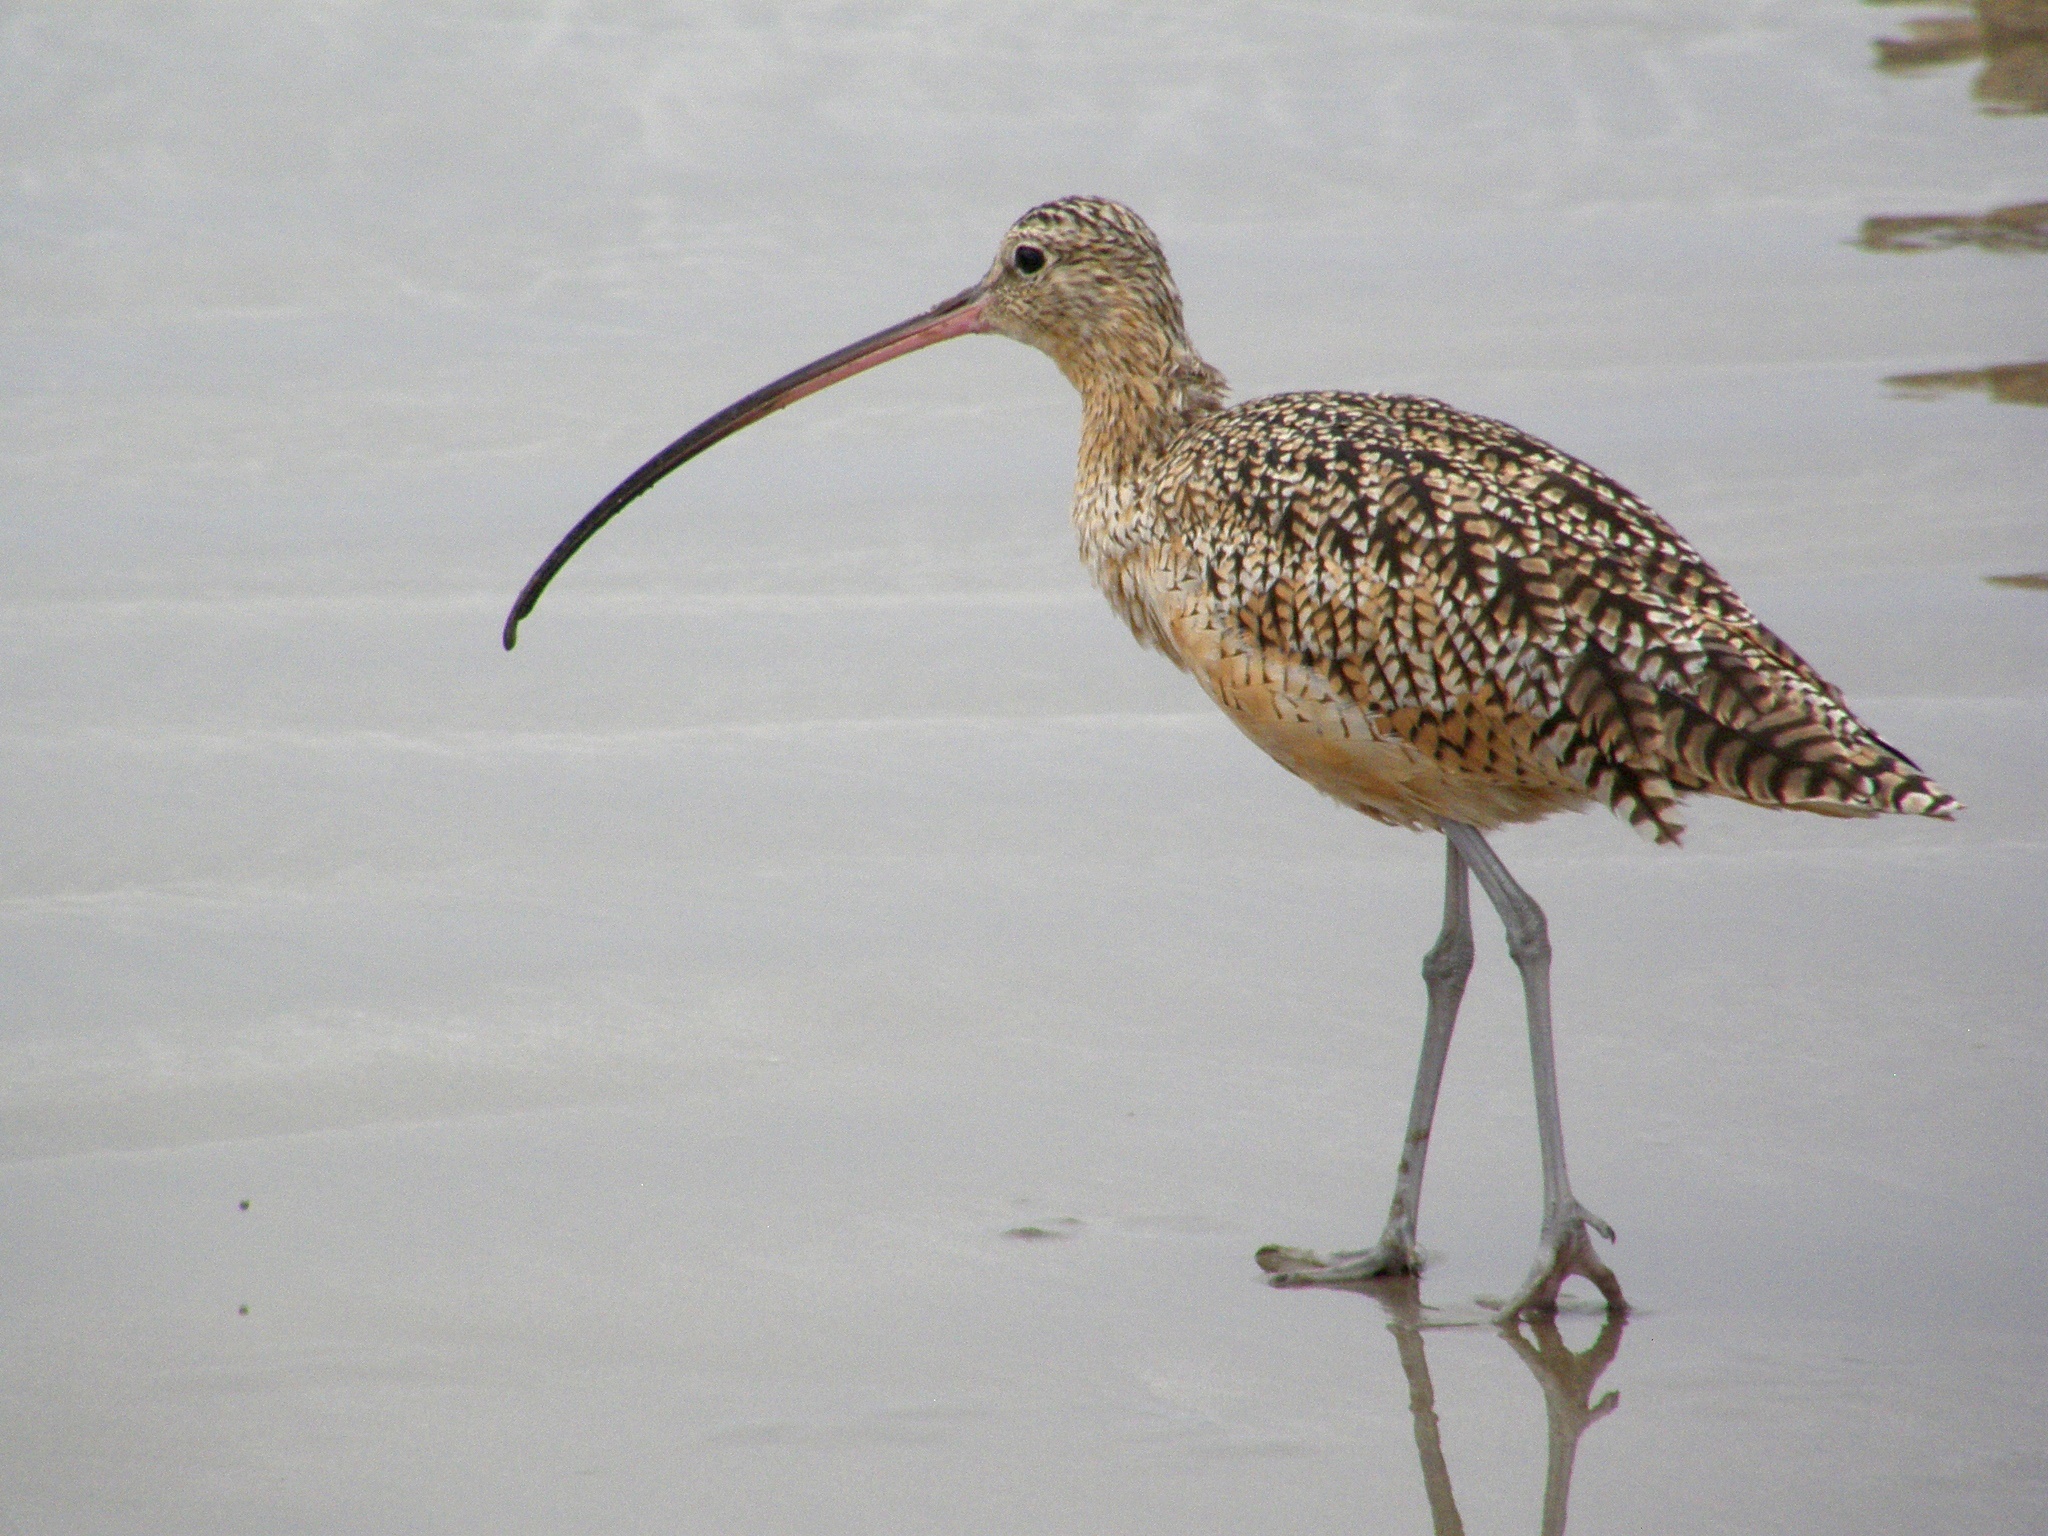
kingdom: Animalia
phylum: Chordata
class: Aves
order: Charadriiformes
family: Scolopacidae
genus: Numenius
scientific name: Numenius americanus
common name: Long-billed curlew
